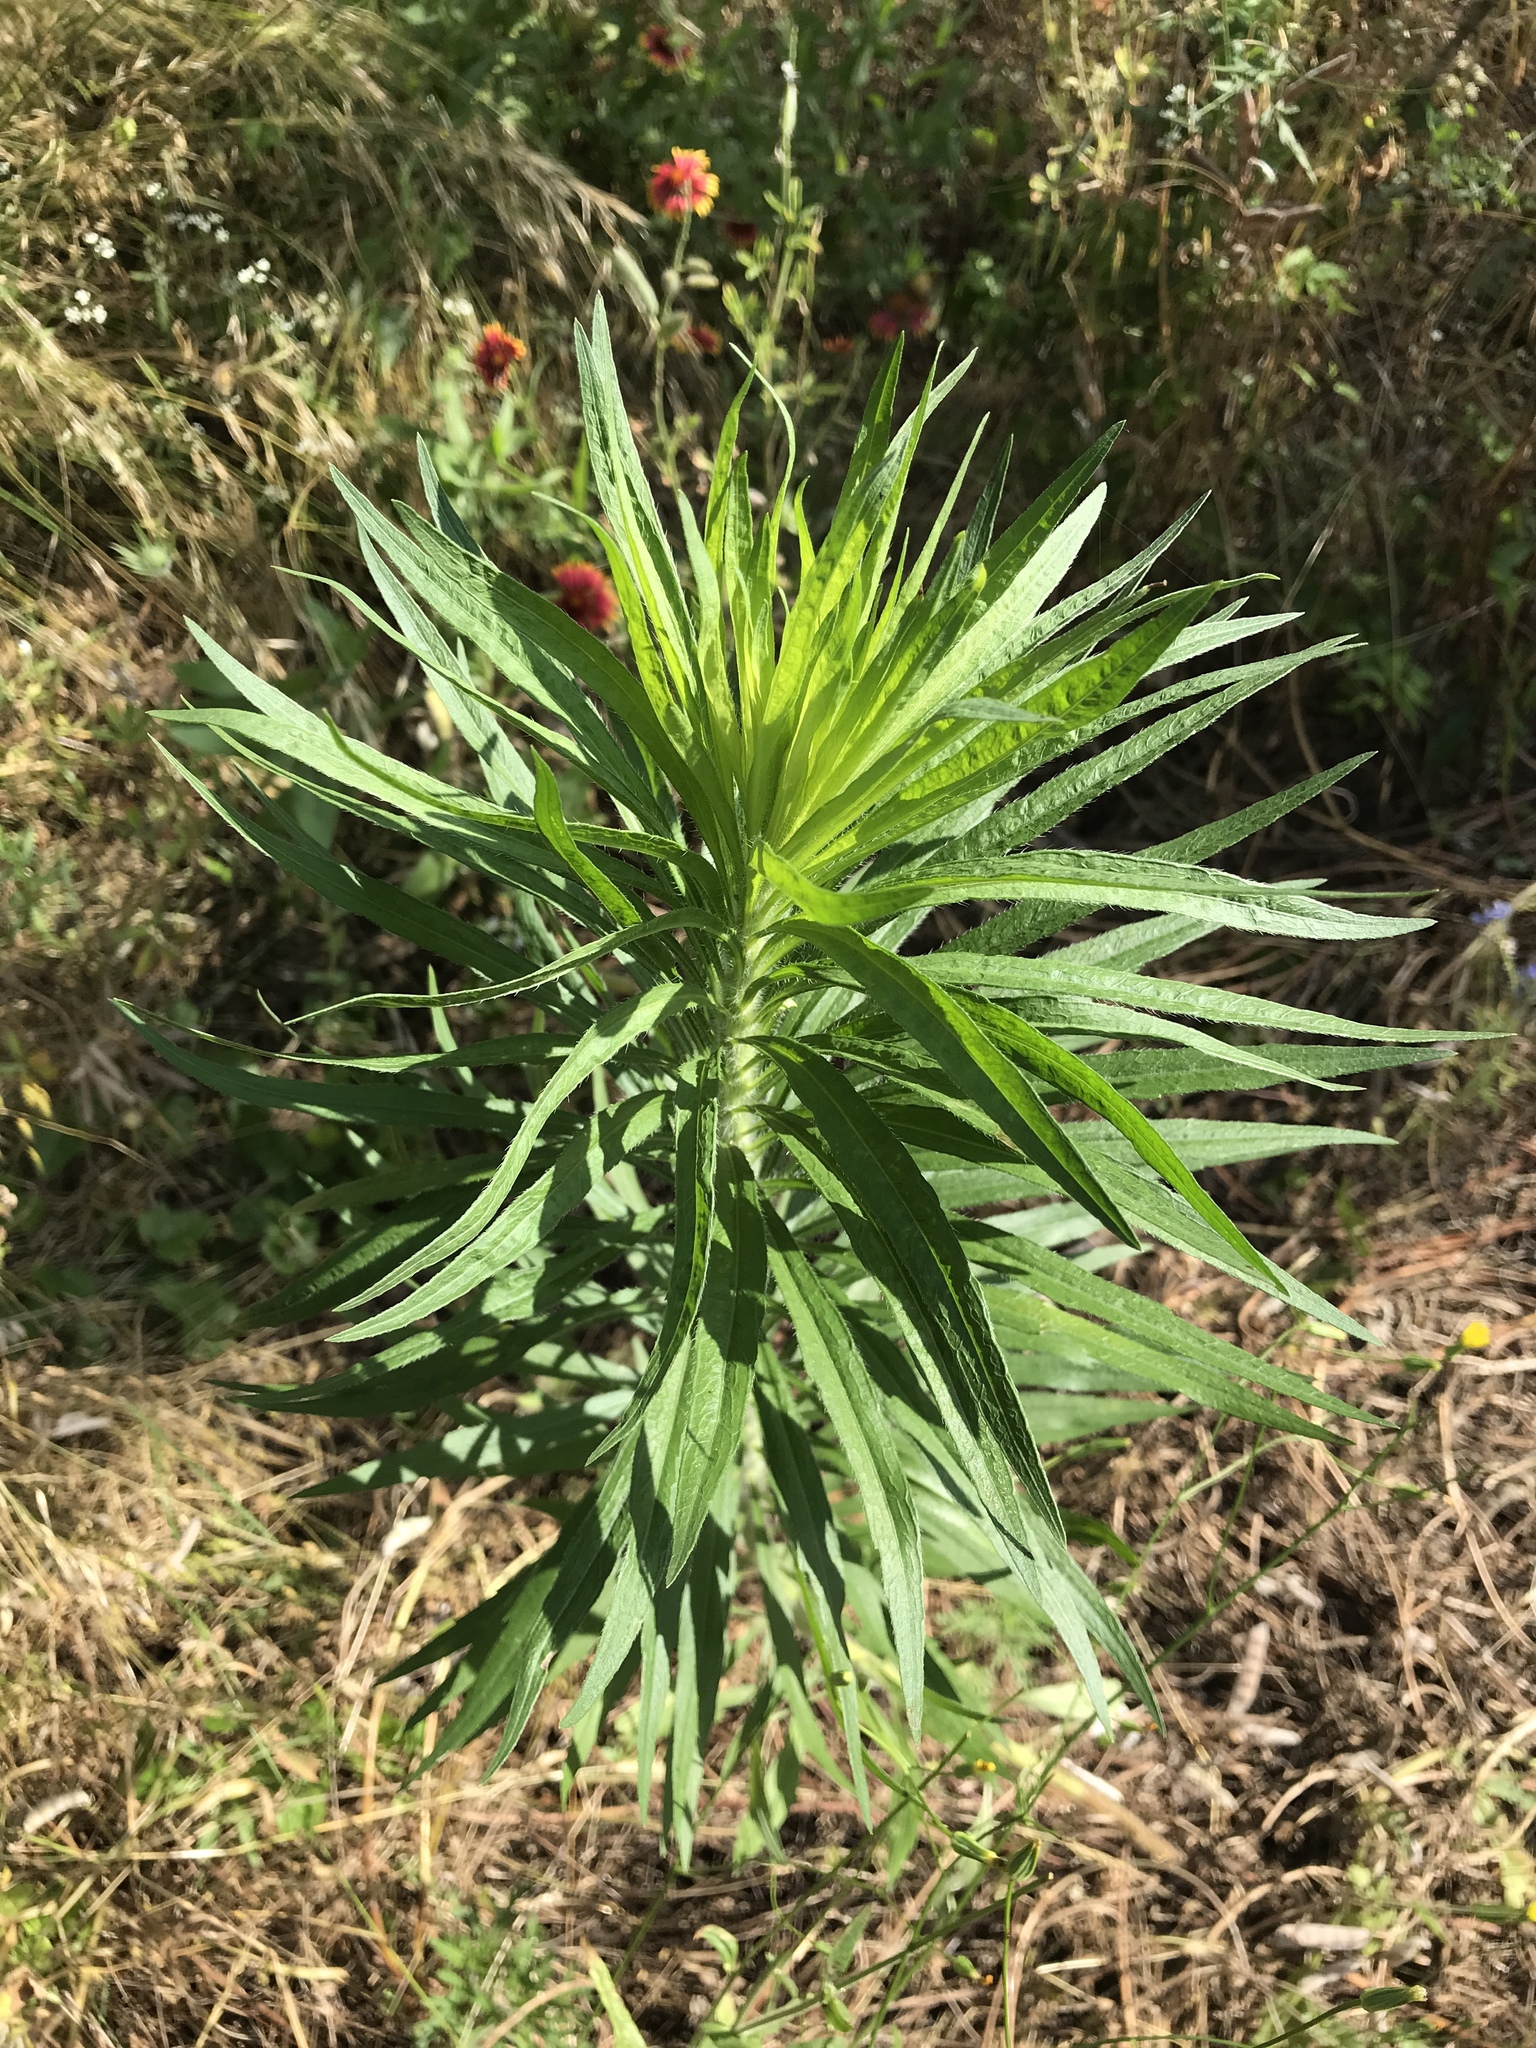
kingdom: Plantae
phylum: Tracheophyta
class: Magnoliopsida
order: Asterales
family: Asteraceae
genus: Erigeron
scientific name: Erigeron canadensis
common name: Canadian fleabane
